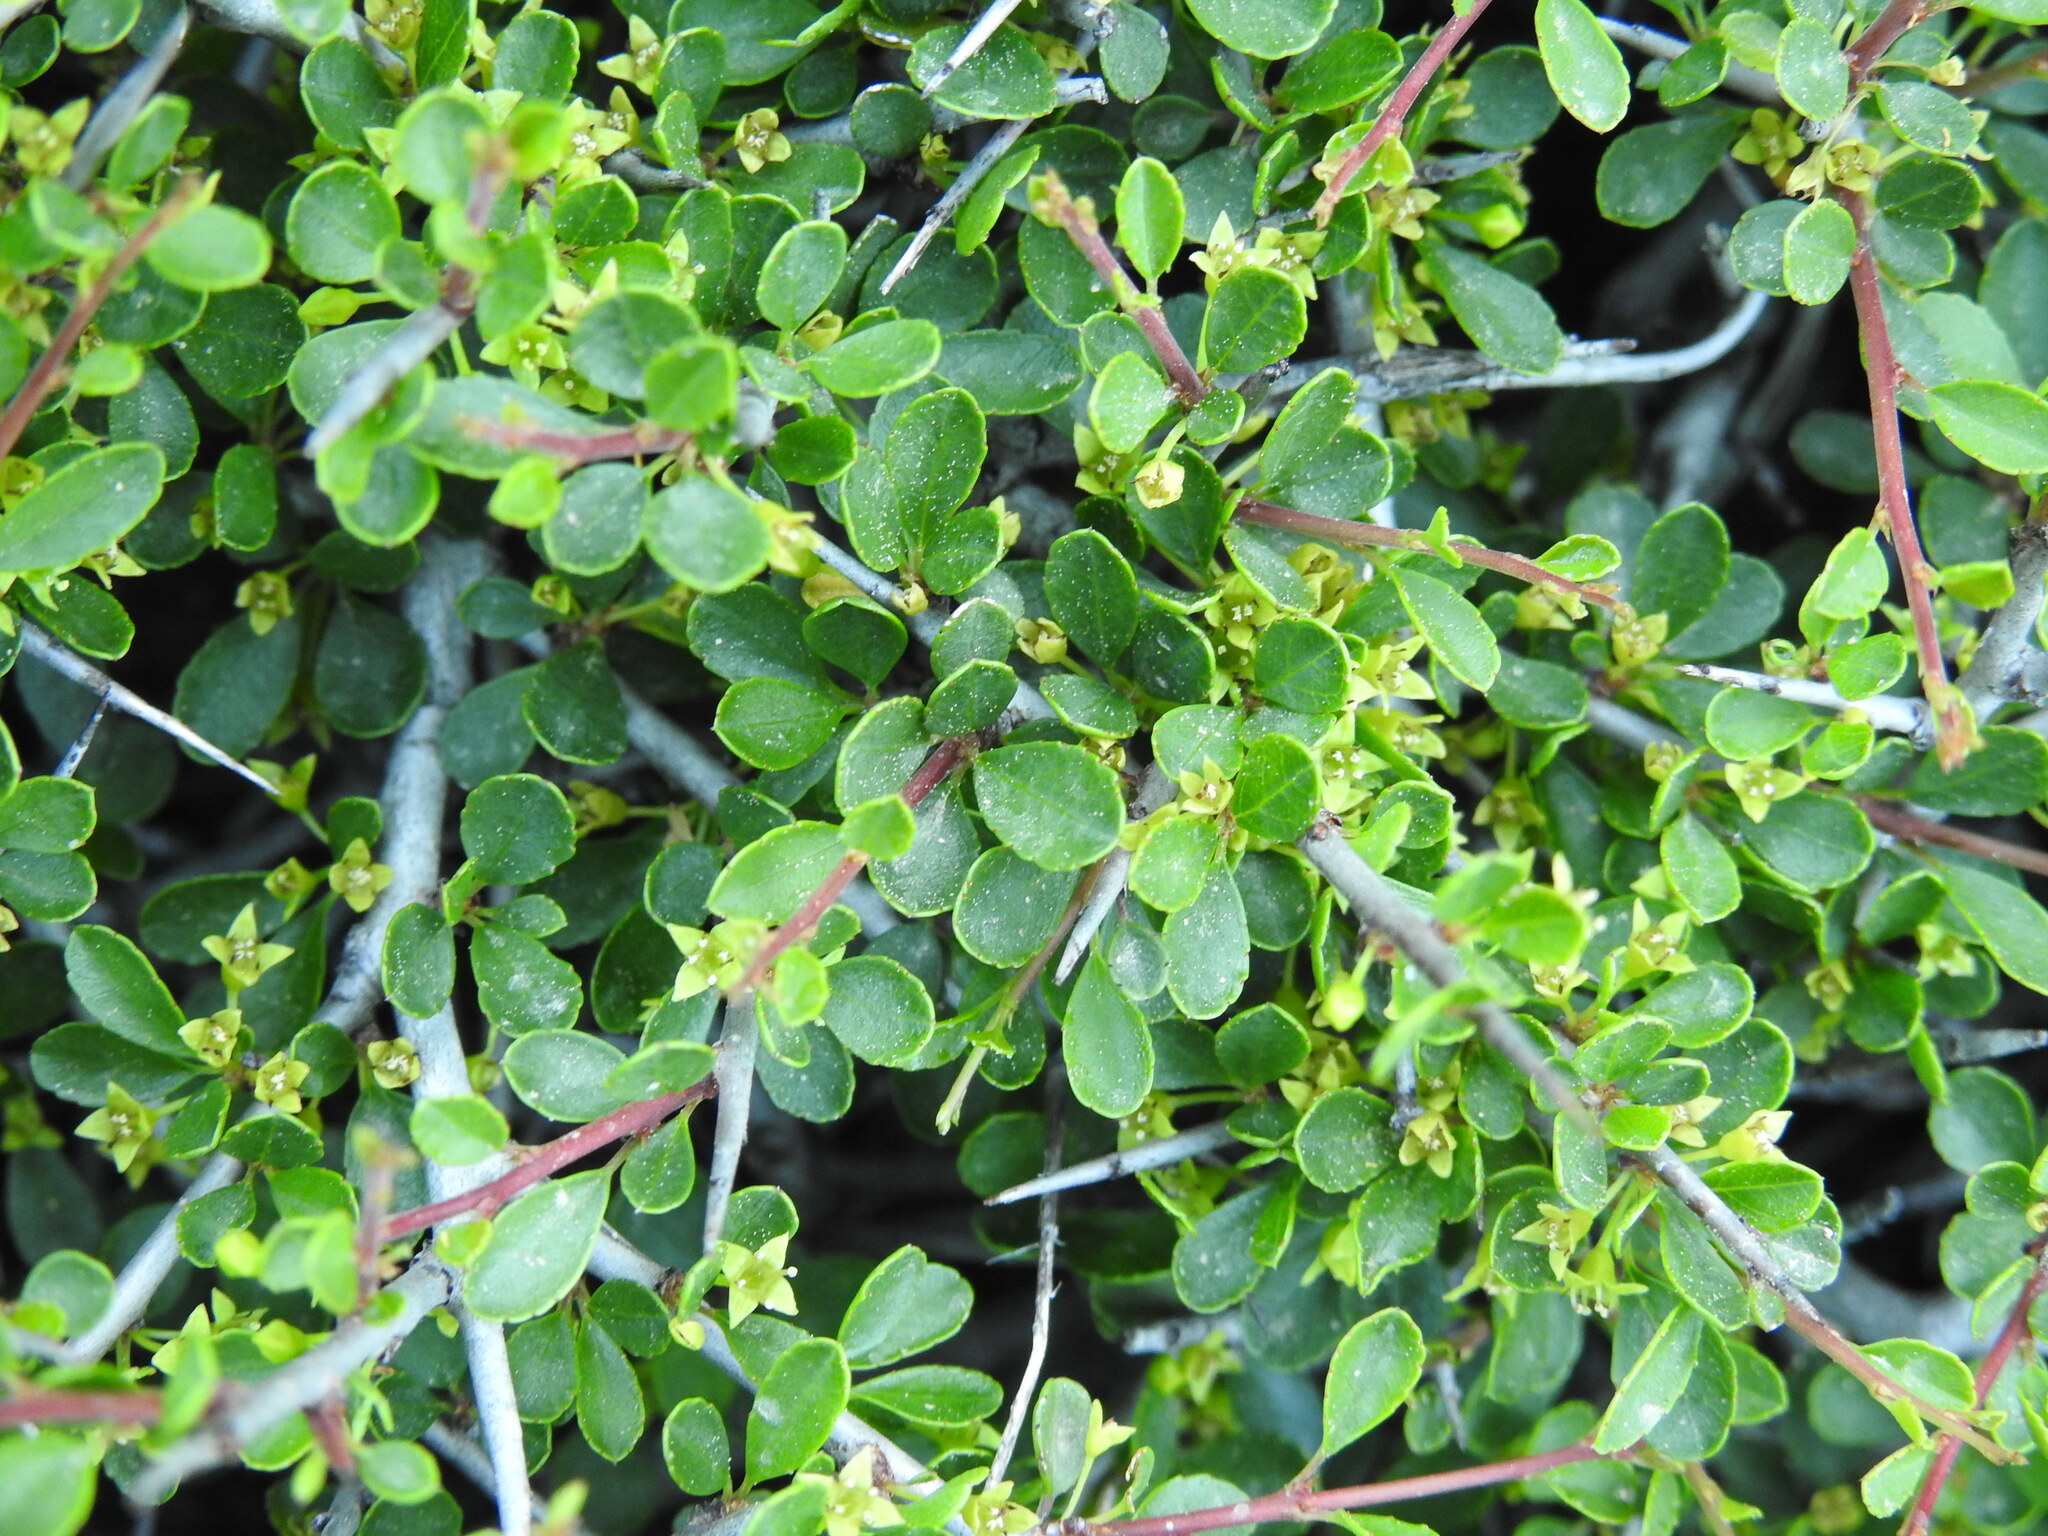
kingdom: Plantae
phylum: Tracheophyta
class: Magnoliopsida
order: Rosales
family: Rhamnaceae
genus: Rhamnus
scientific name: Rhamnus oleoides
